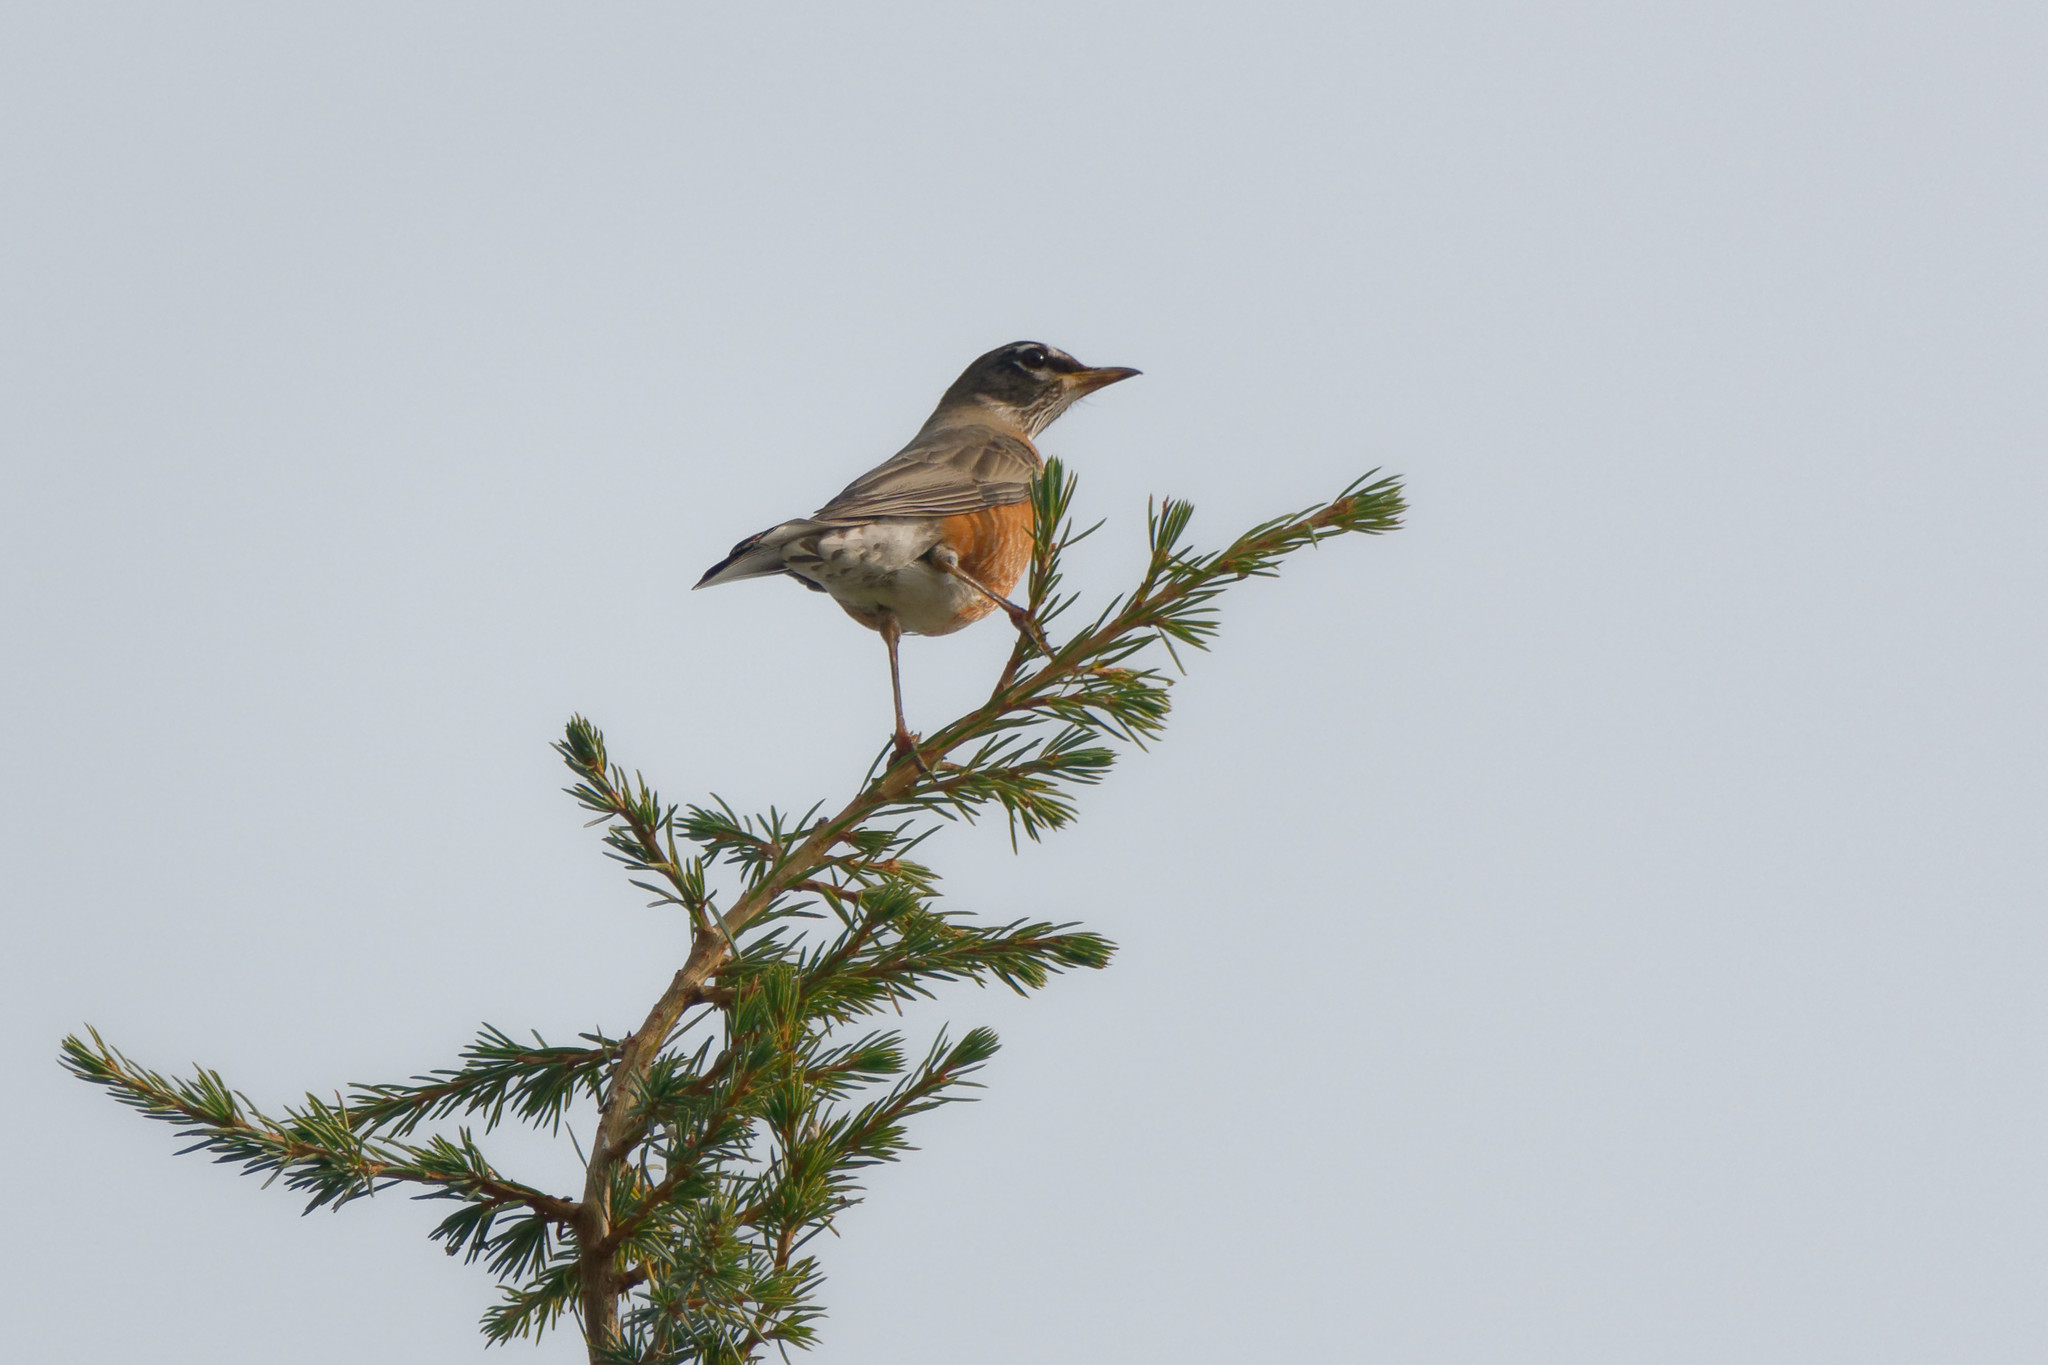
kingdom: Animalia
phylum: Chordata
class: Aves
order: Passeriformes
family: Turdidae
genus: Turdus
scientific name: Turdus migratorius
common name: American robin
